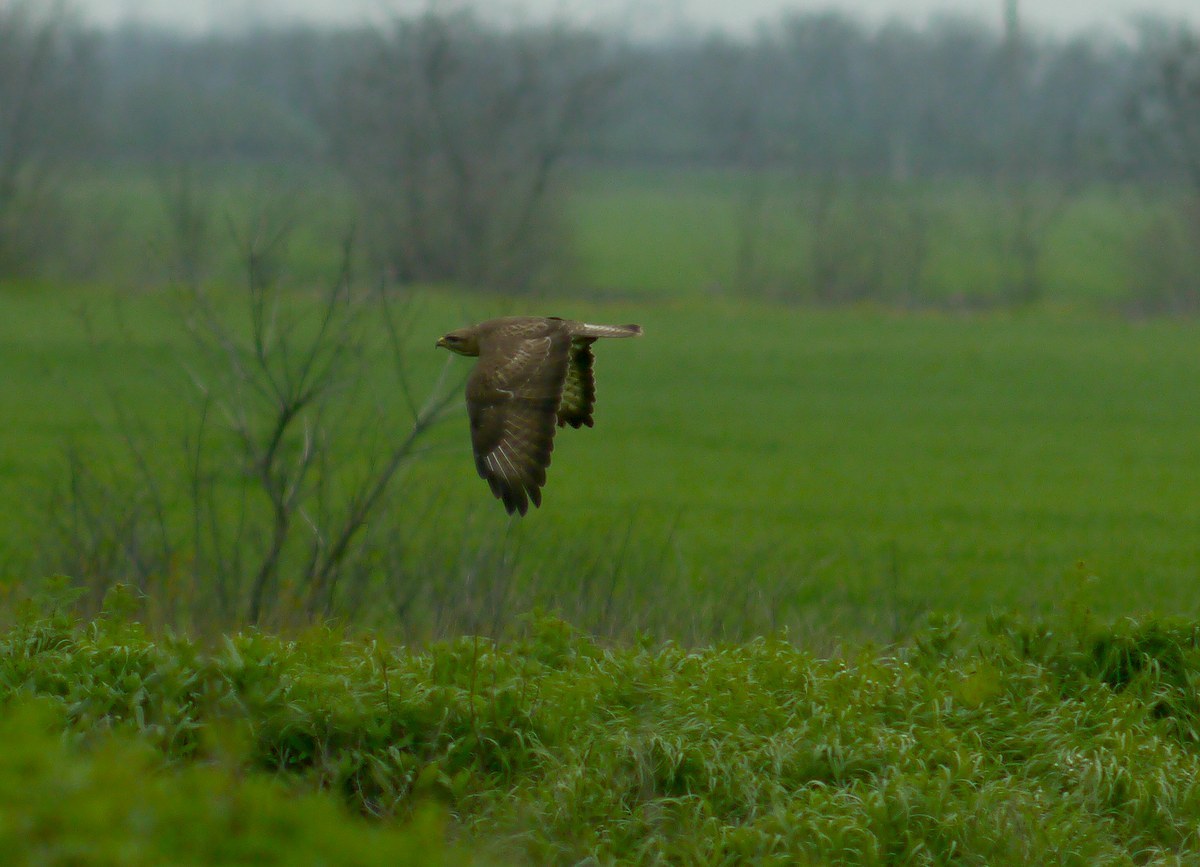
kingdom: Animalia
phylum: Chordata
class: Aves
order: Accipitriformes
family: Accipitridae
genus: Buteo
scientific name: Buteo buteo
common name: Common buzzard
